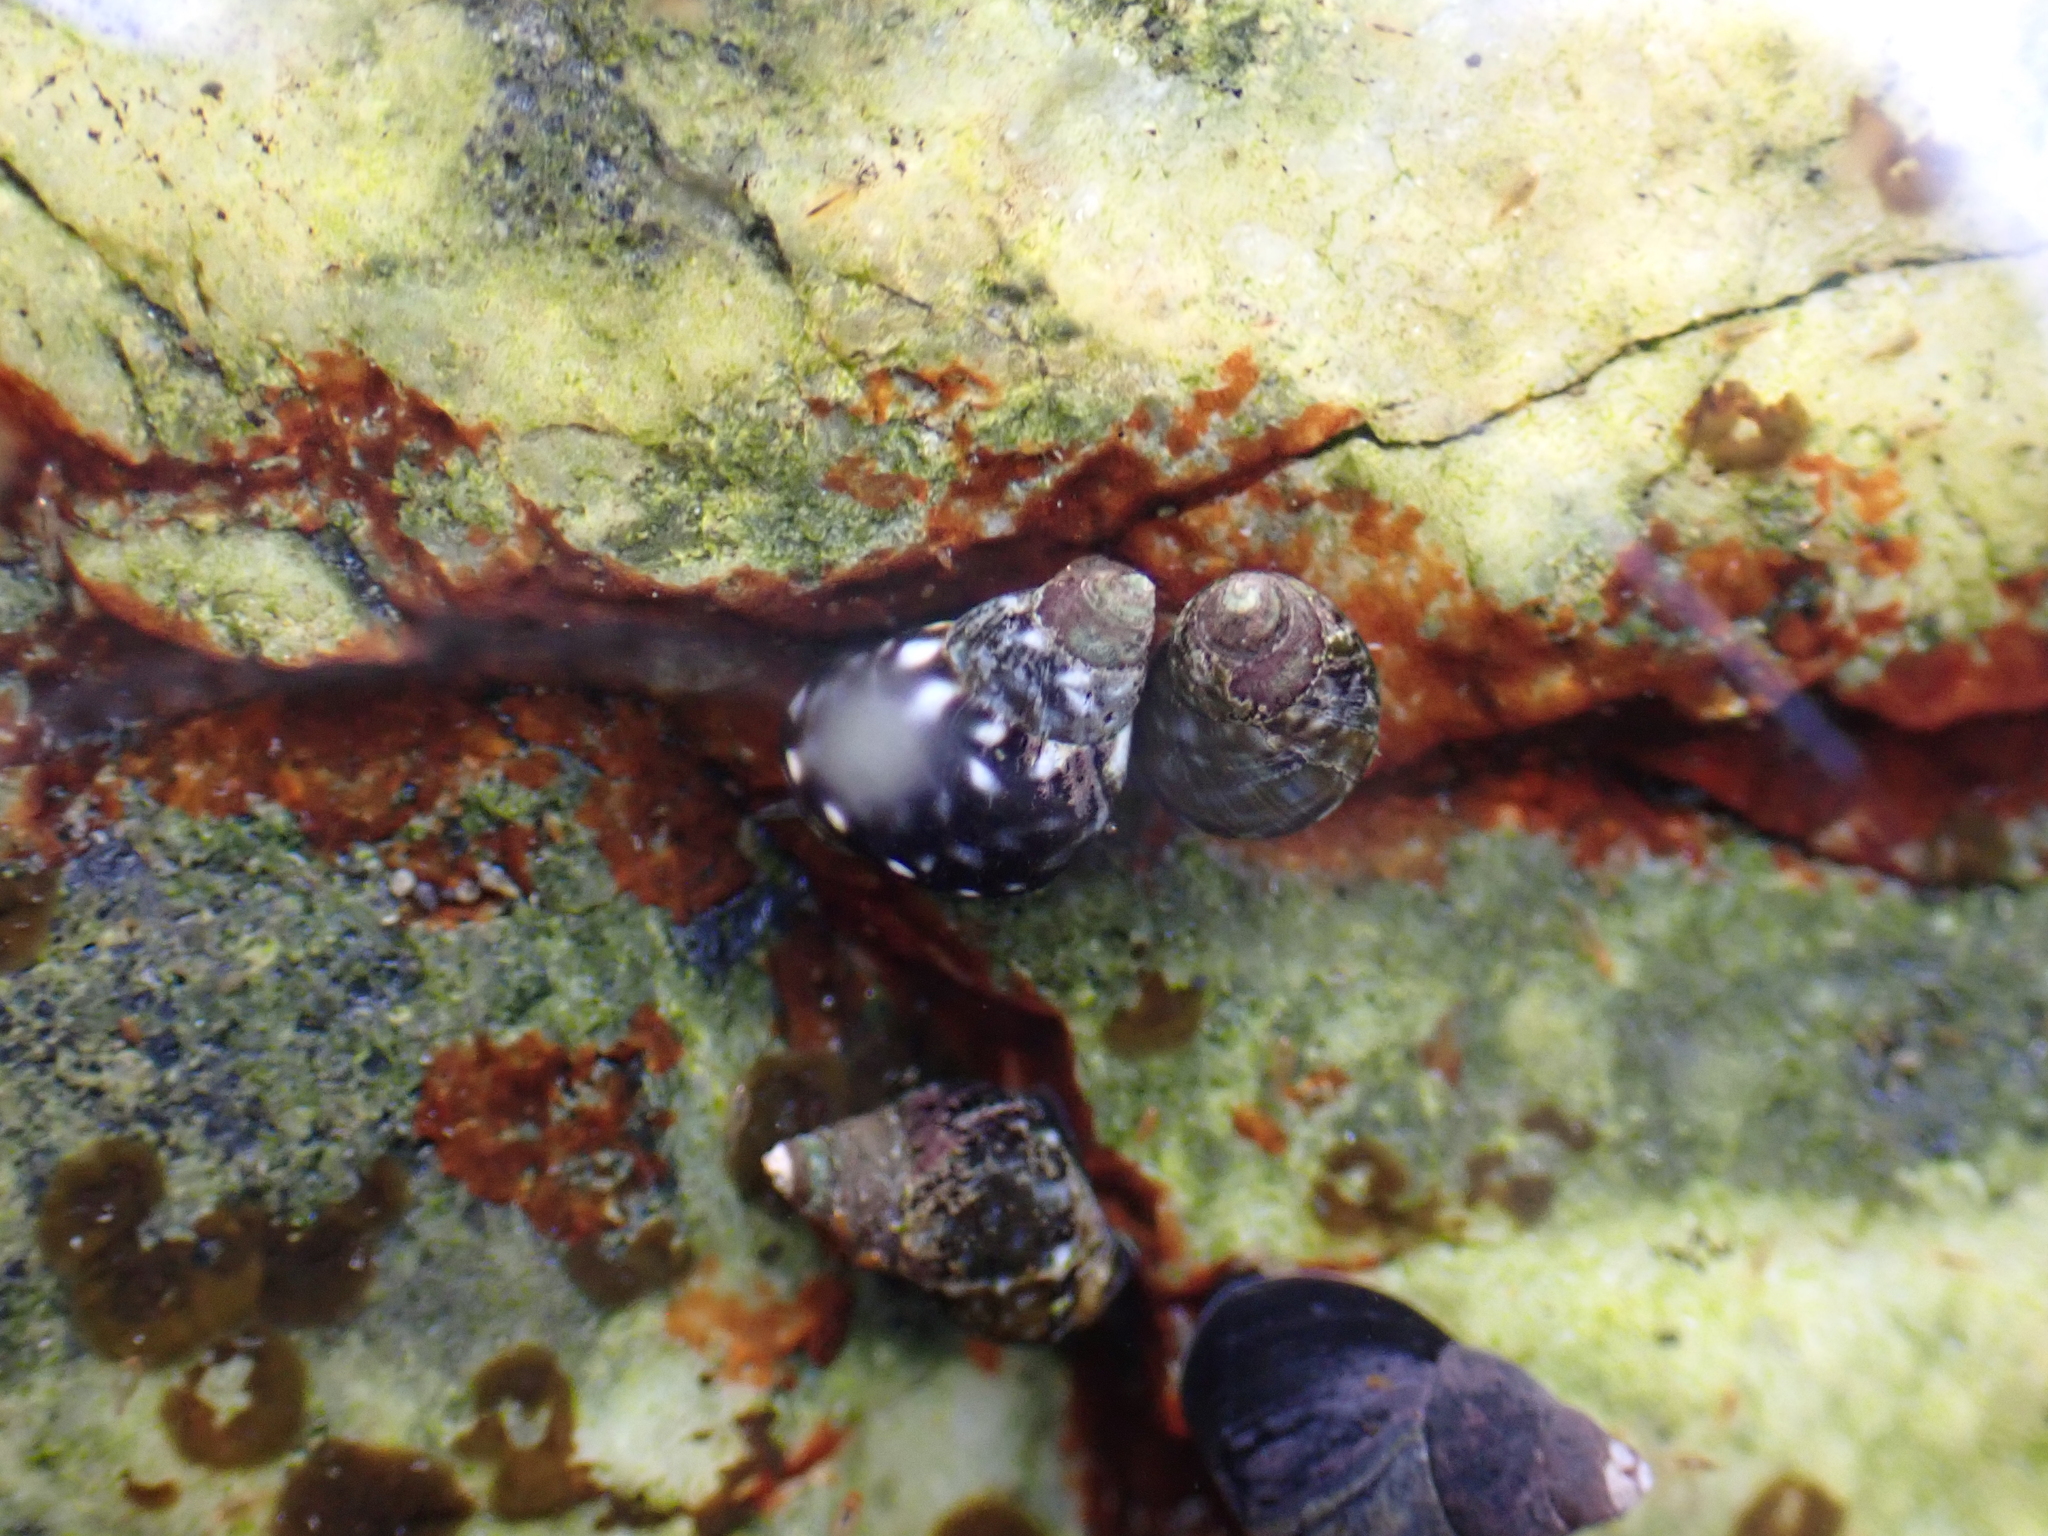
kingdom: Animalia
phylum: Mollusca
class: Gastropoda
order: Littorinimorpha
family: Littorinidae
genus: Littorina
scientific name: Littorina scutulata
